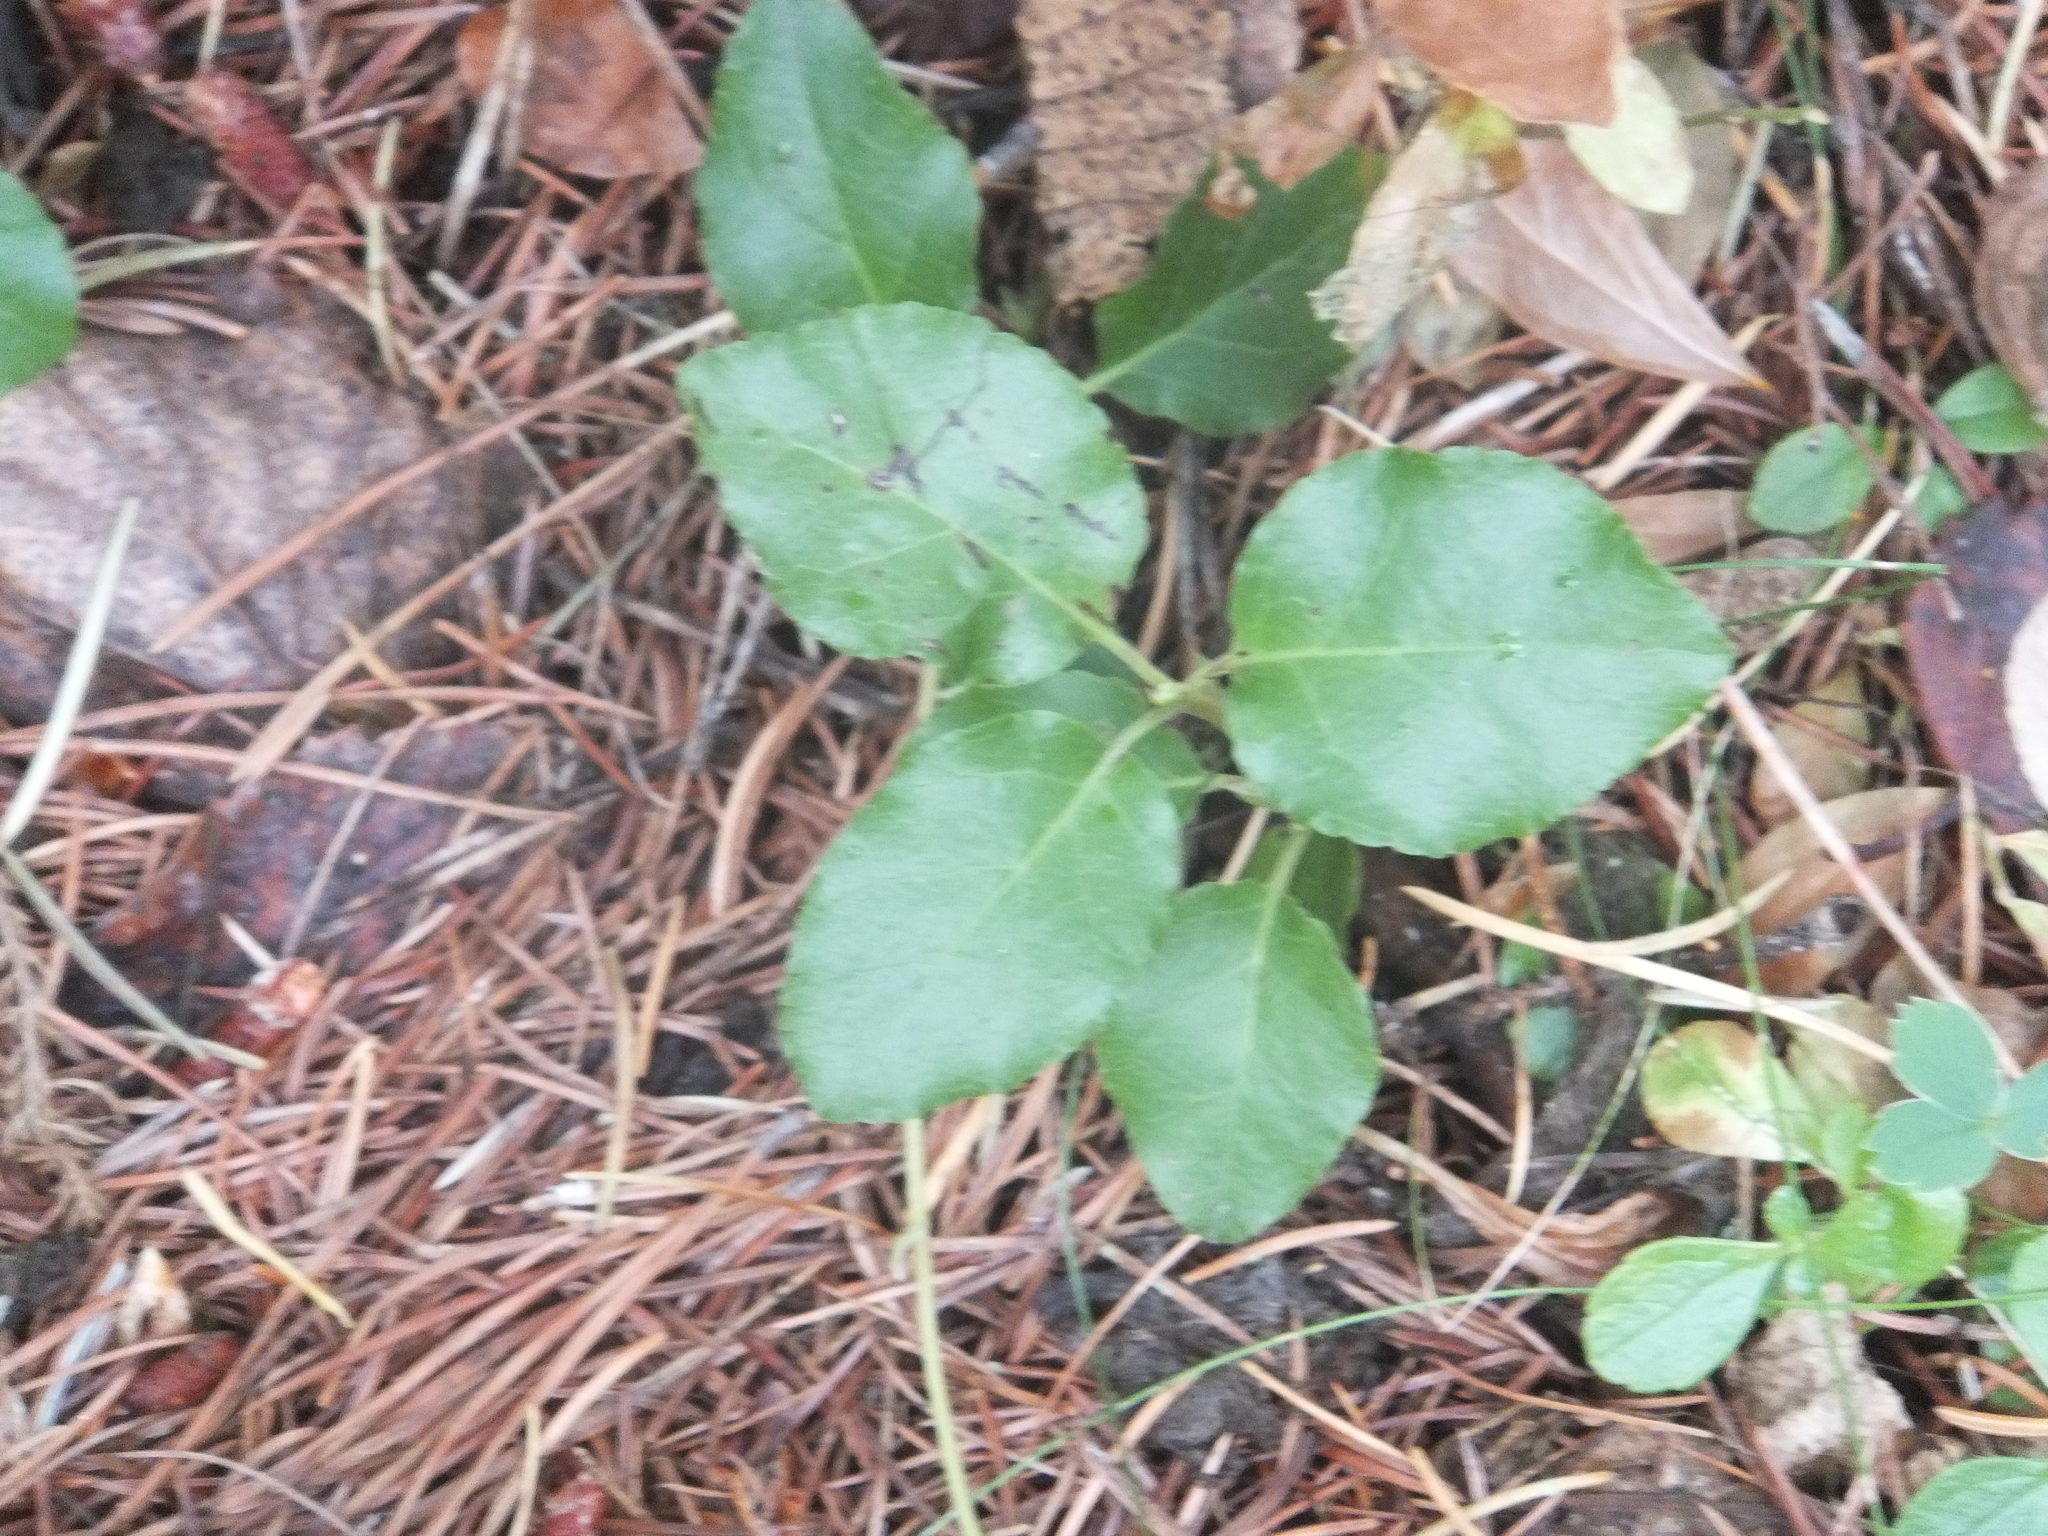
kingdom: Plantae
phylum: Tracheophyta
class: Magnoliopsida
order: Ericales
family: Ericaceae
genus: Orthilia
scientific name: Orthilia secunda
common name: One-sided orthilia
